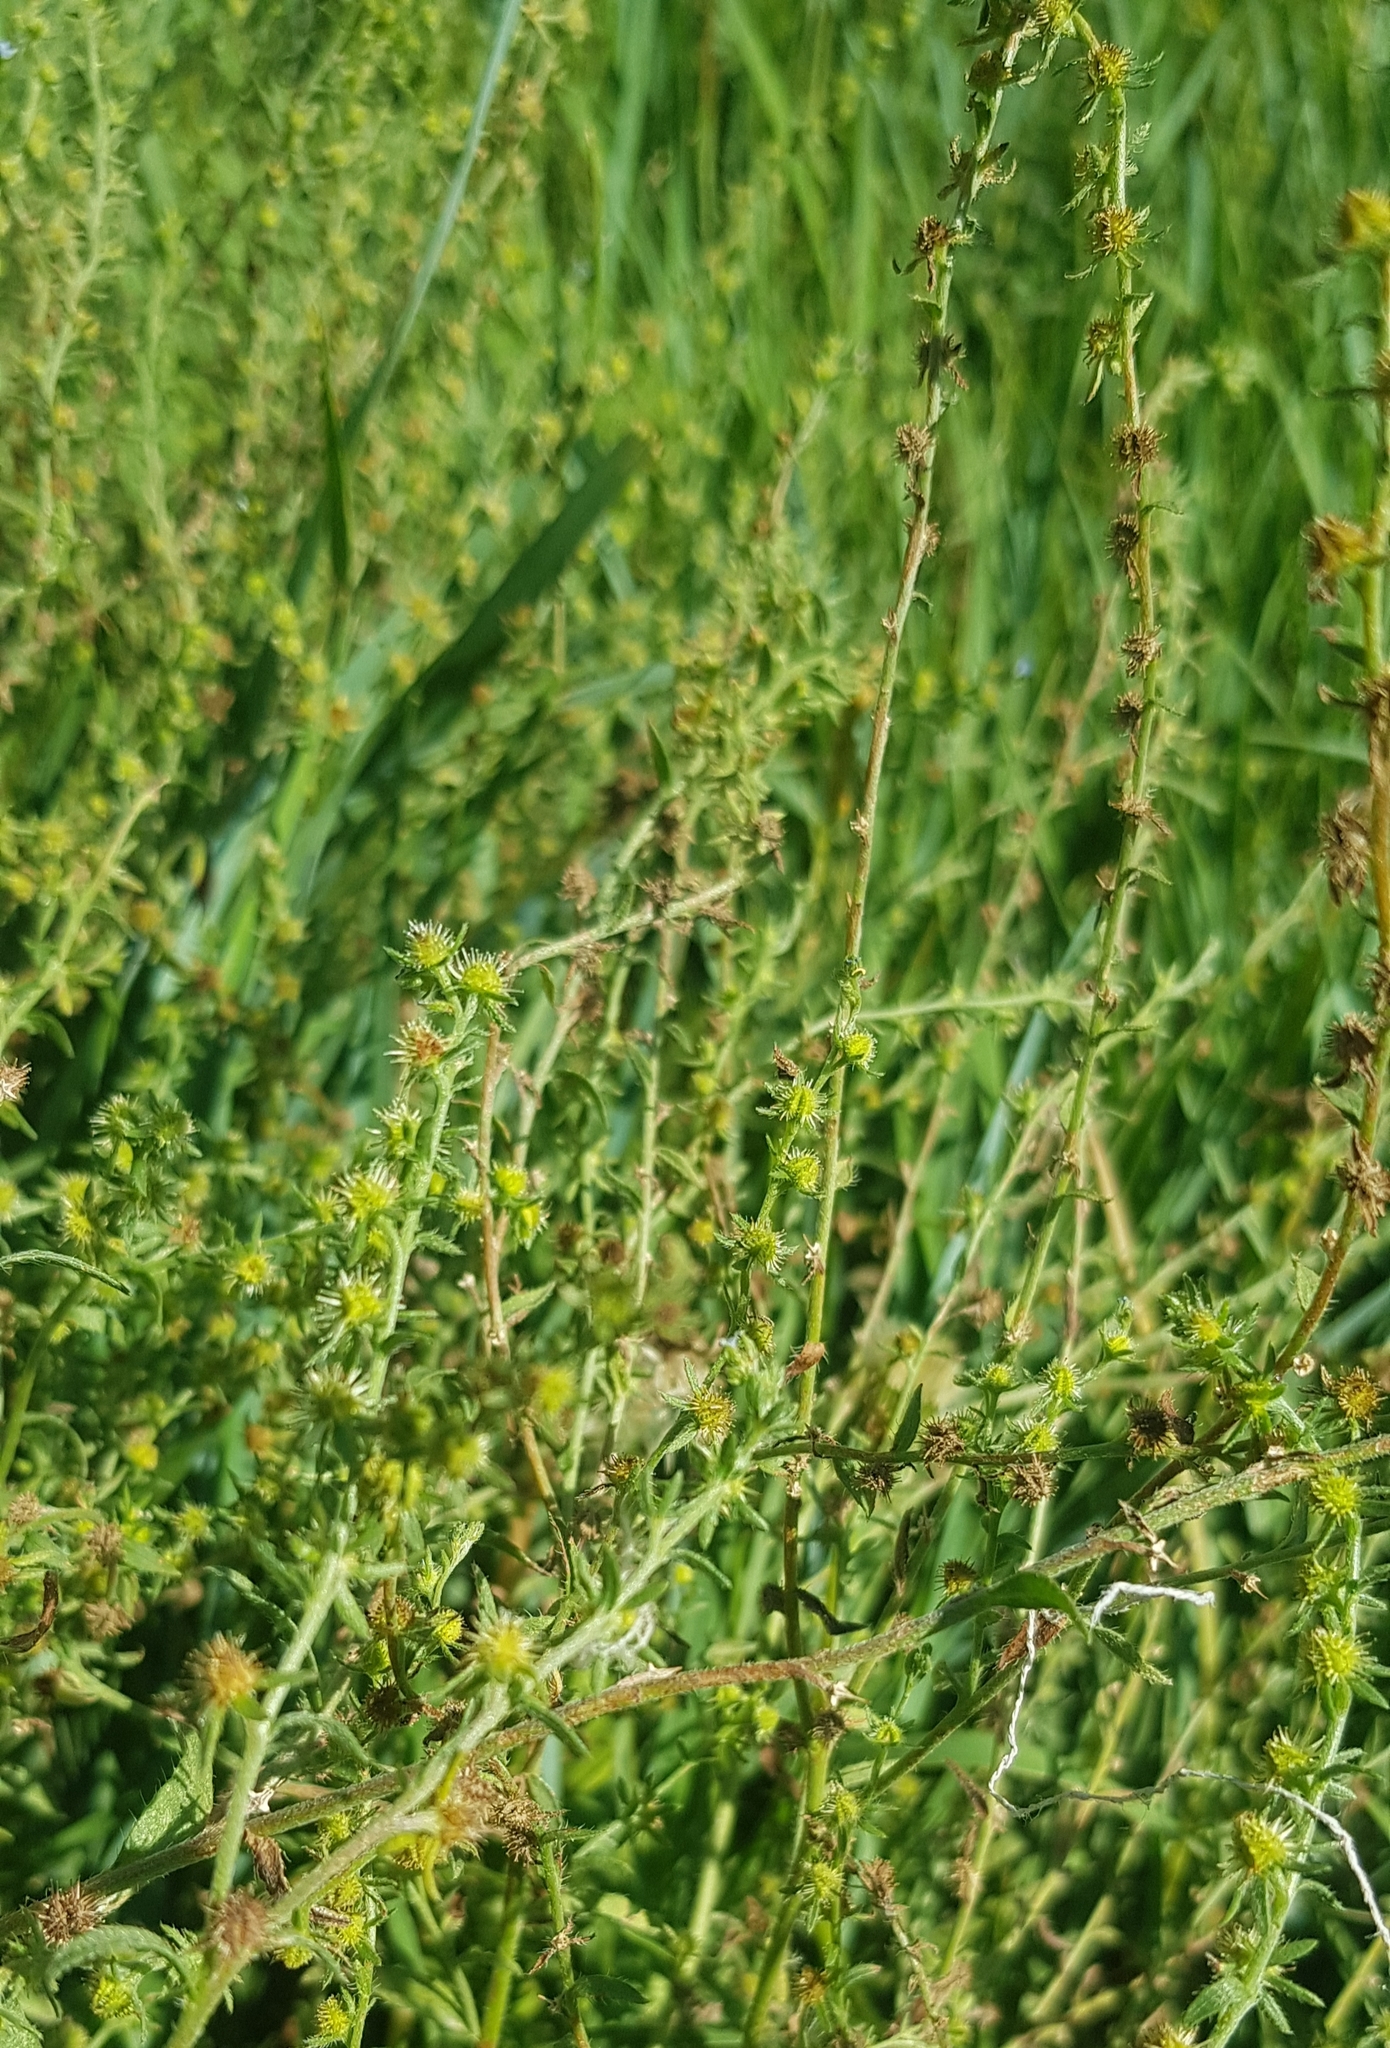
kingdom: Plantae
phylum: Tracheophyta
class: Magnoliopsida
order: Boraginales
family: Boraginaceae
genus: Lappula
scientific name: Lappula squarrosa
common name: European stickseed
